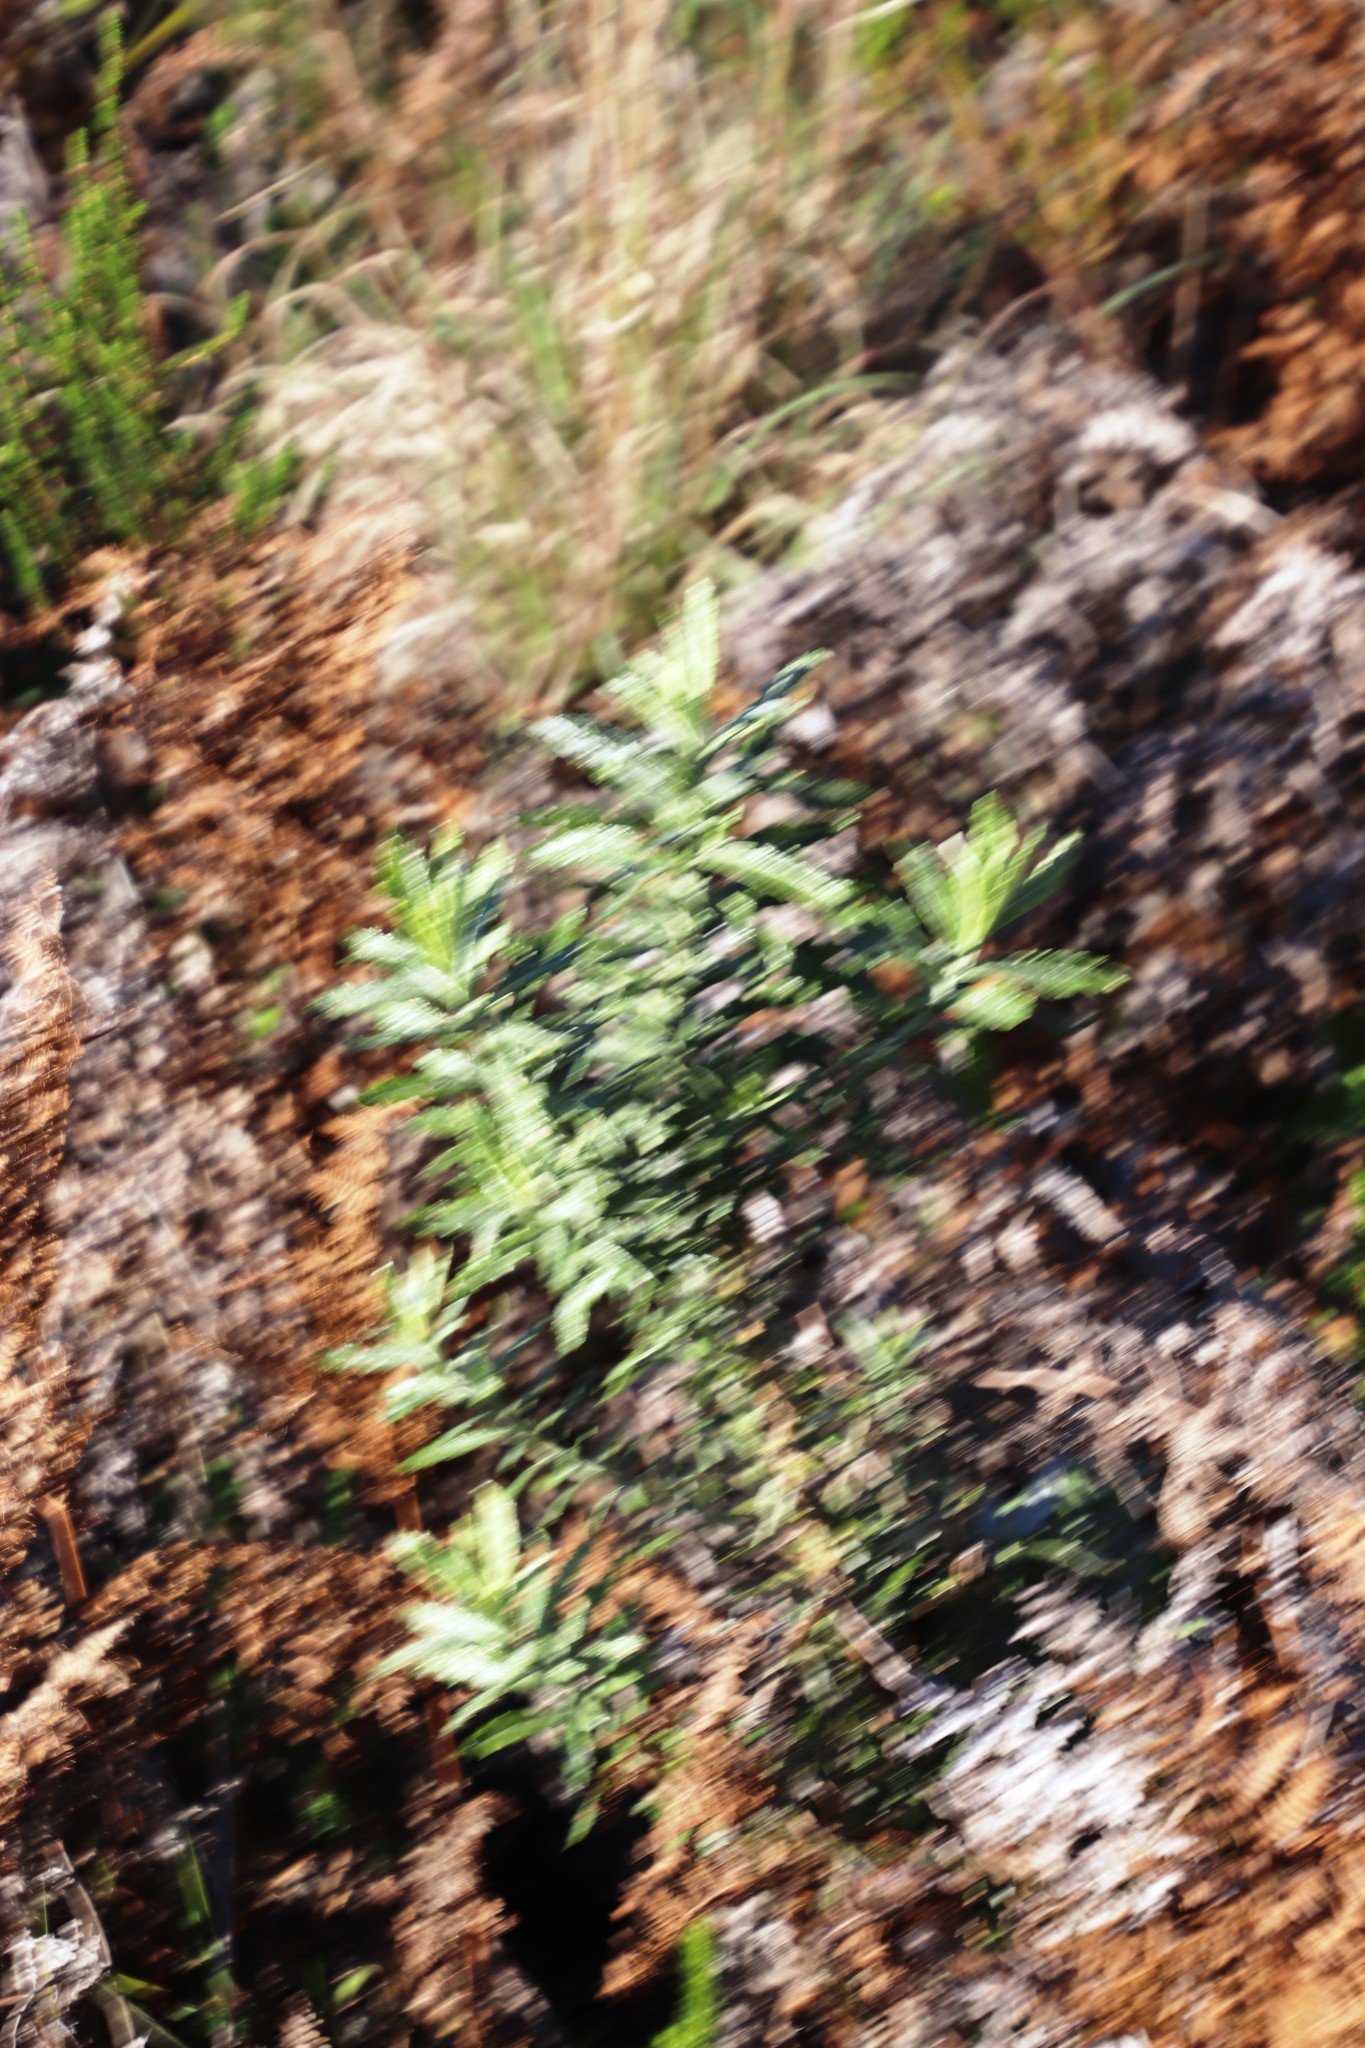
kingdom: Plantae
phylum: Tracheophyta
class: Magnoliopsida
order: Asterales
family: Asteraceae
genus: Senecio
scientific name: Senecio pterophorus
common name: Shoddy ragwort
